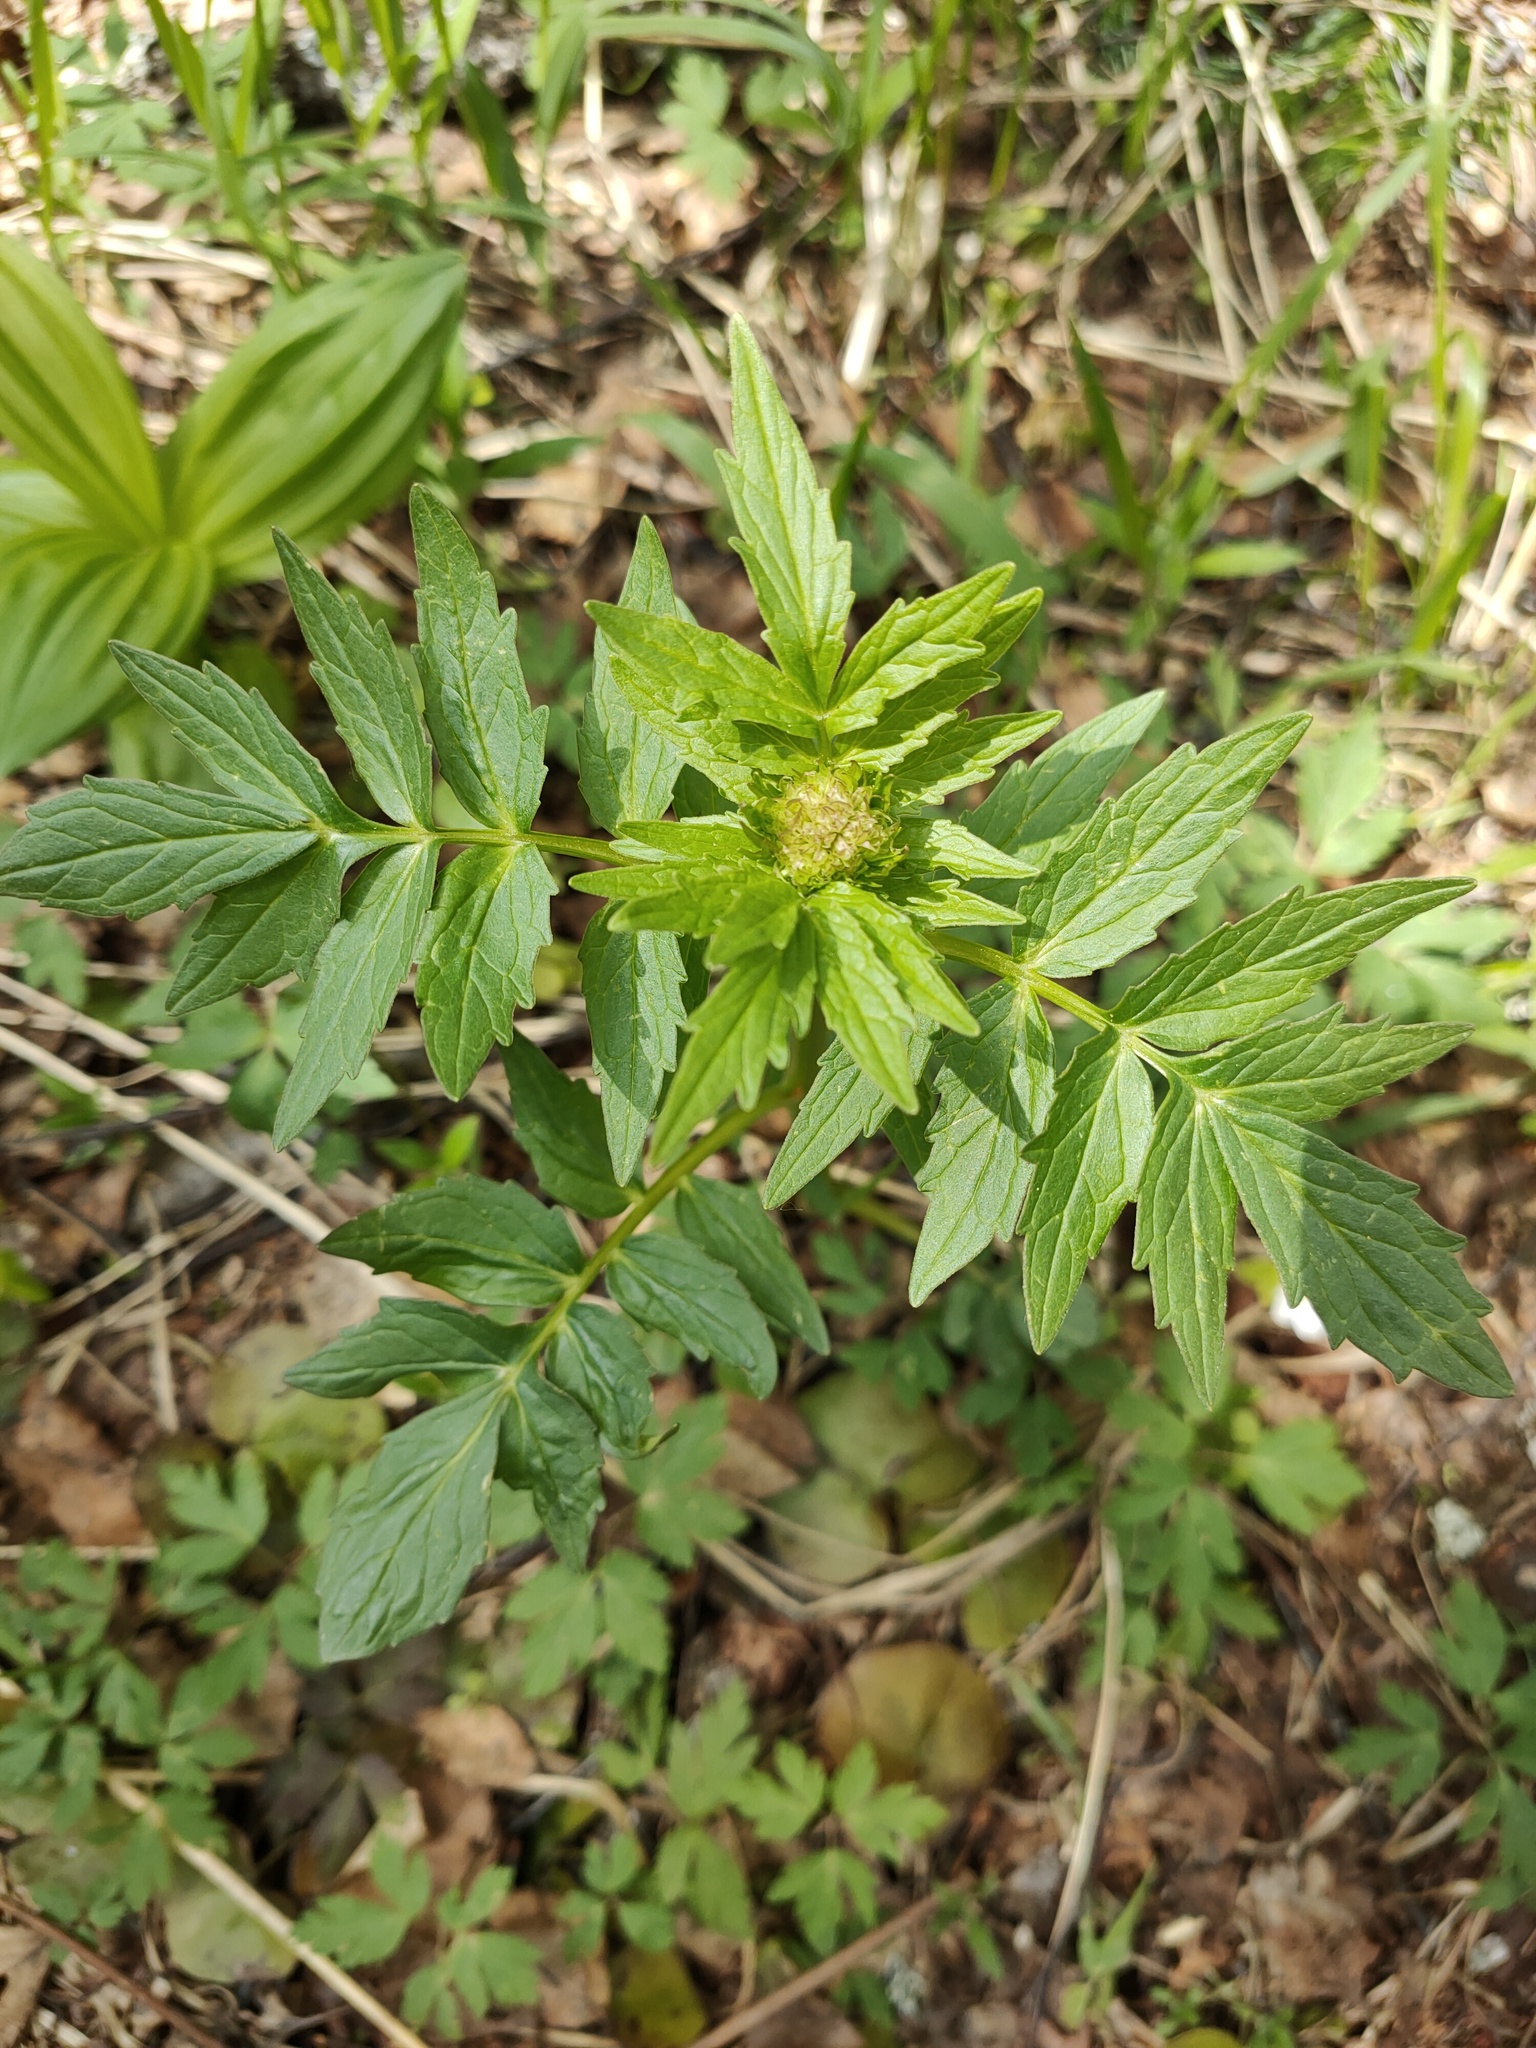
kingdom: Plantae
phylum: Tracheophyta
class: Magnoliopsida
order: Dipsacales
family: Caprifoliaceae
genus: Valeriana
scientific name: Valeriana wolgensis
